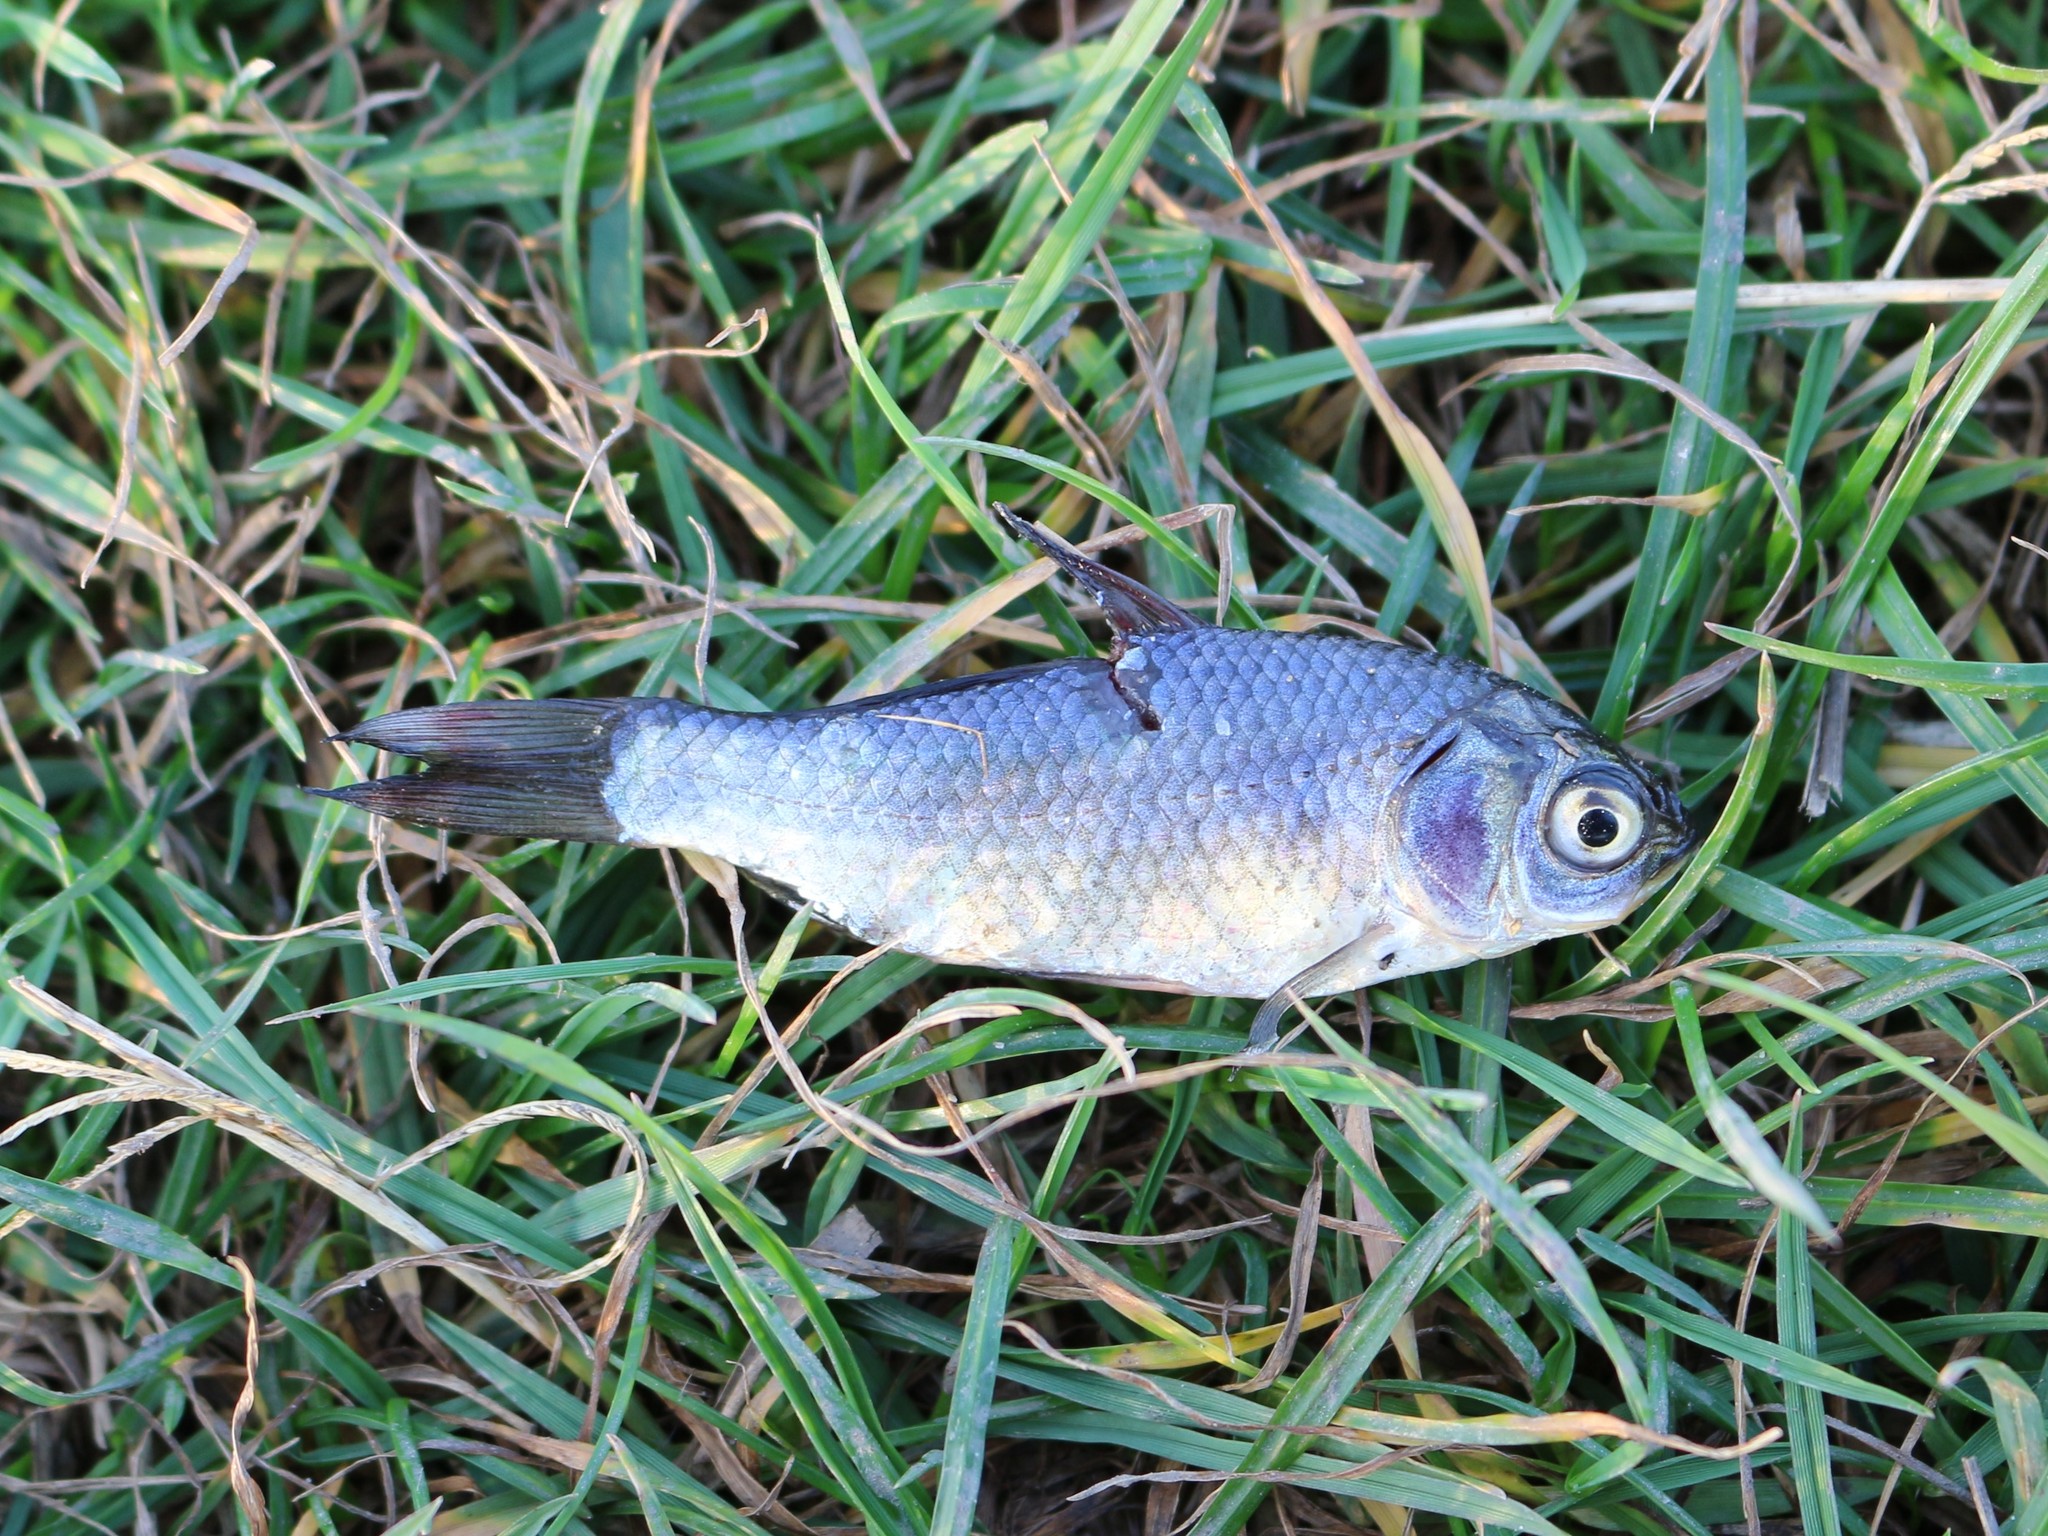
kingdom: Animalia
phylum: Chordata
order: Cypriniformes
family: Cyprinidae
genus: Carassius
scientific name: Carassius gibelio
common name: Prussian carp
